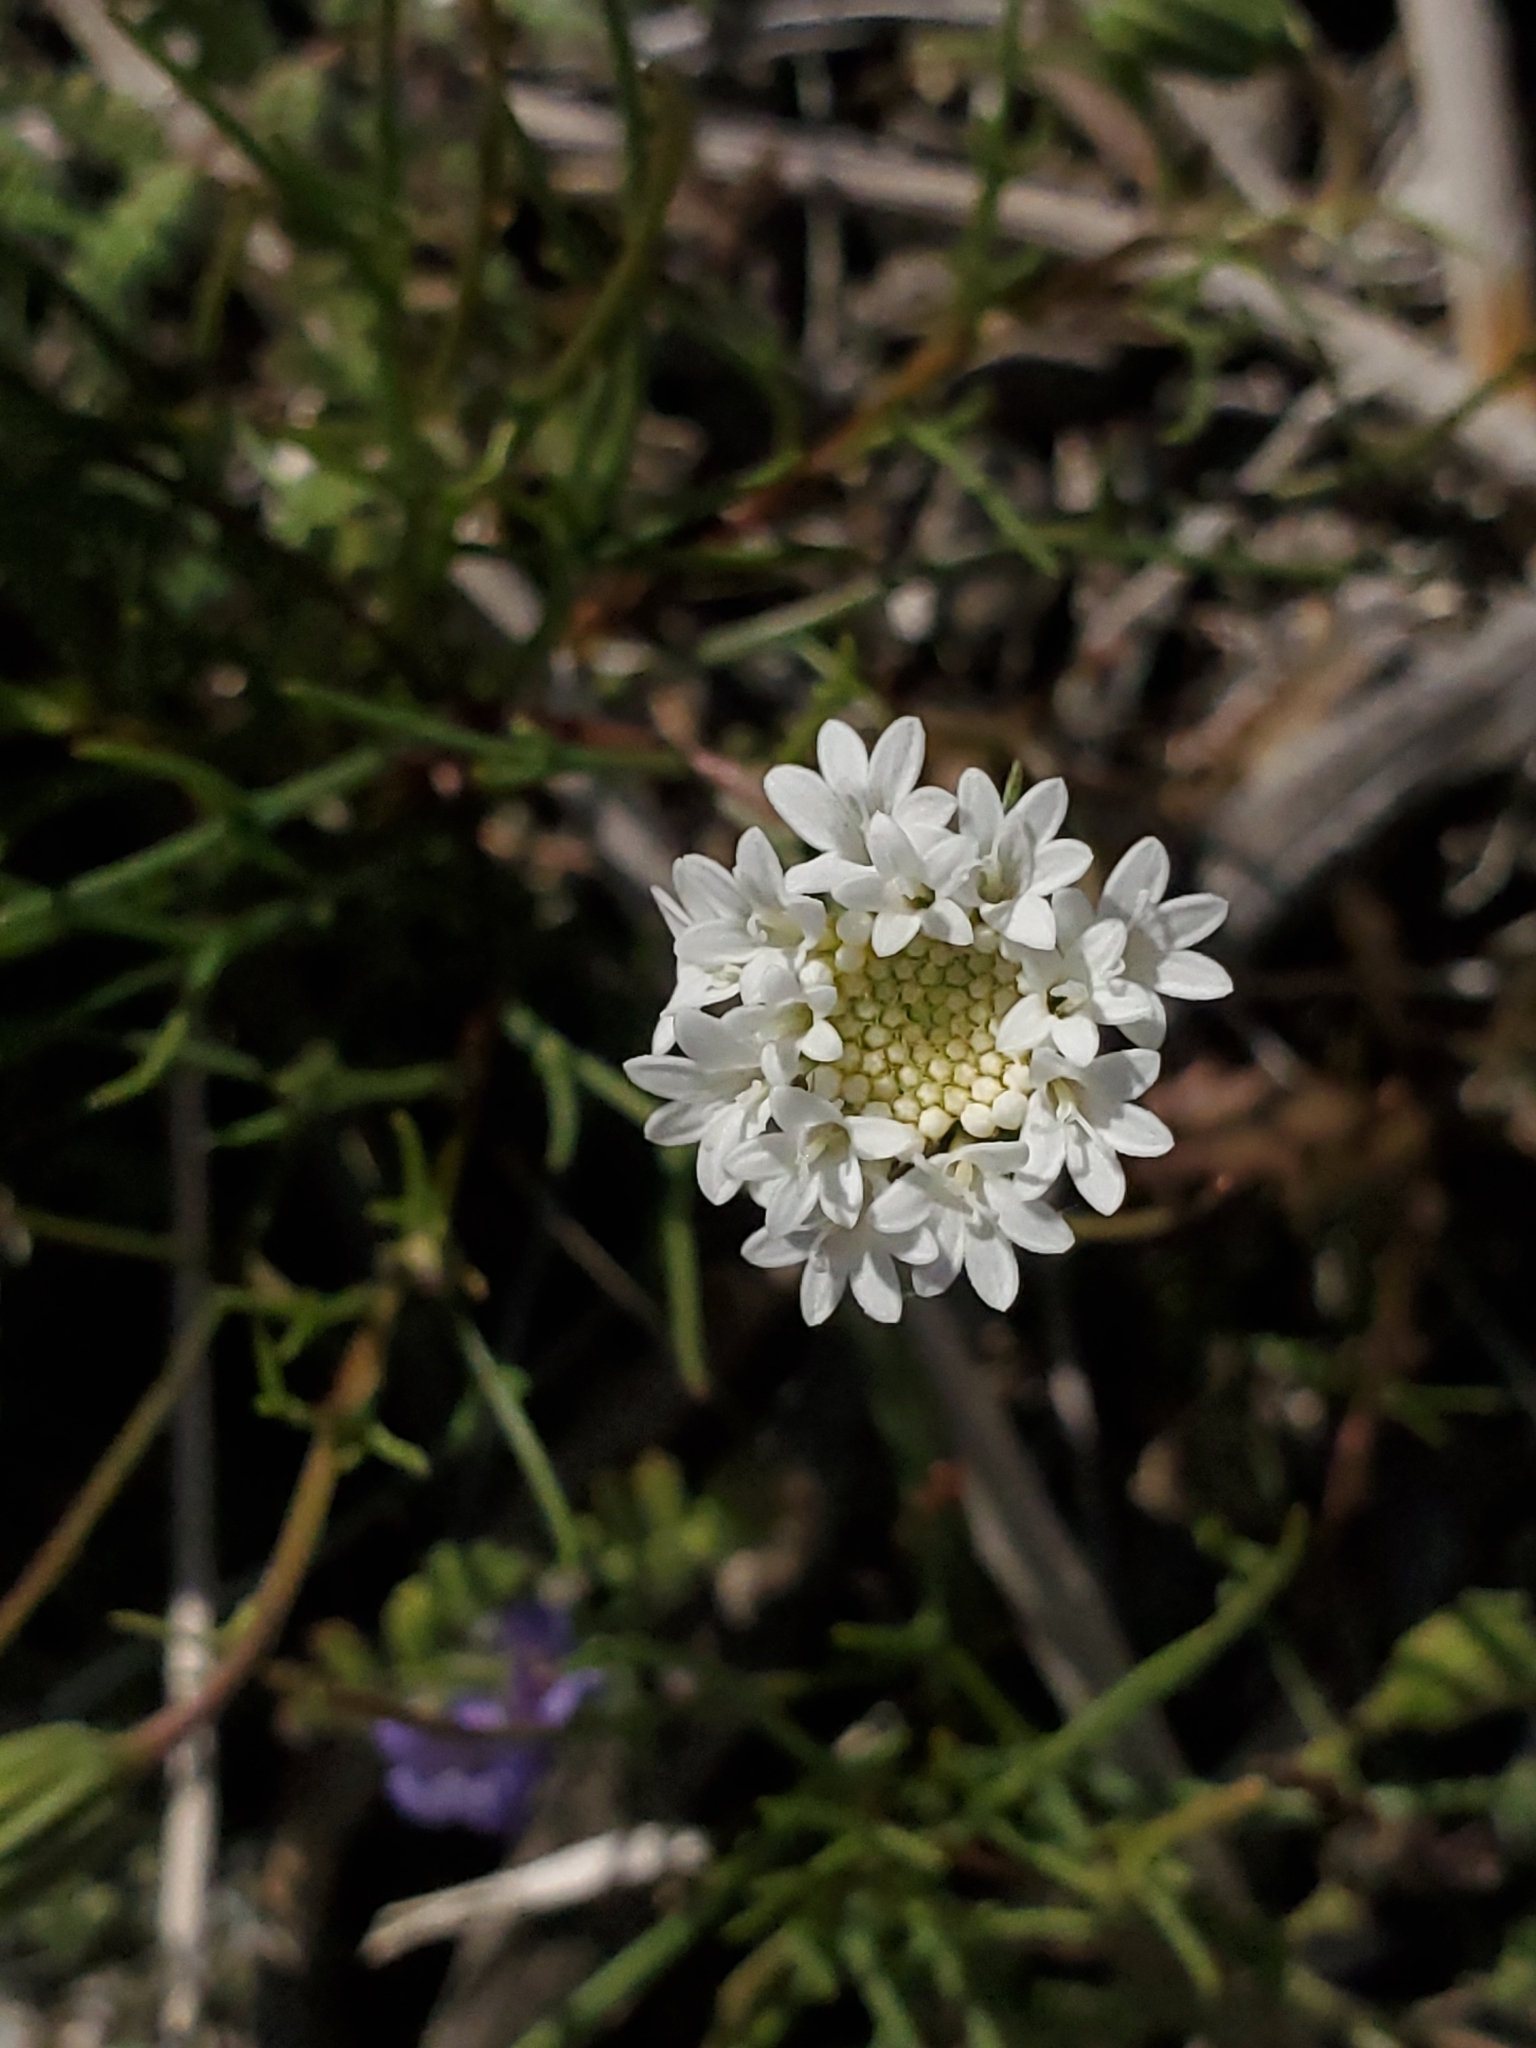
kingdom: Plantae
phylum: Tracheophyta
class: Magnoliopsida
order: Asterales
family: Asteraceae
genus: Chaenactis
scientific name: Chaenactis fremontii
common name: Fremont pincushion
